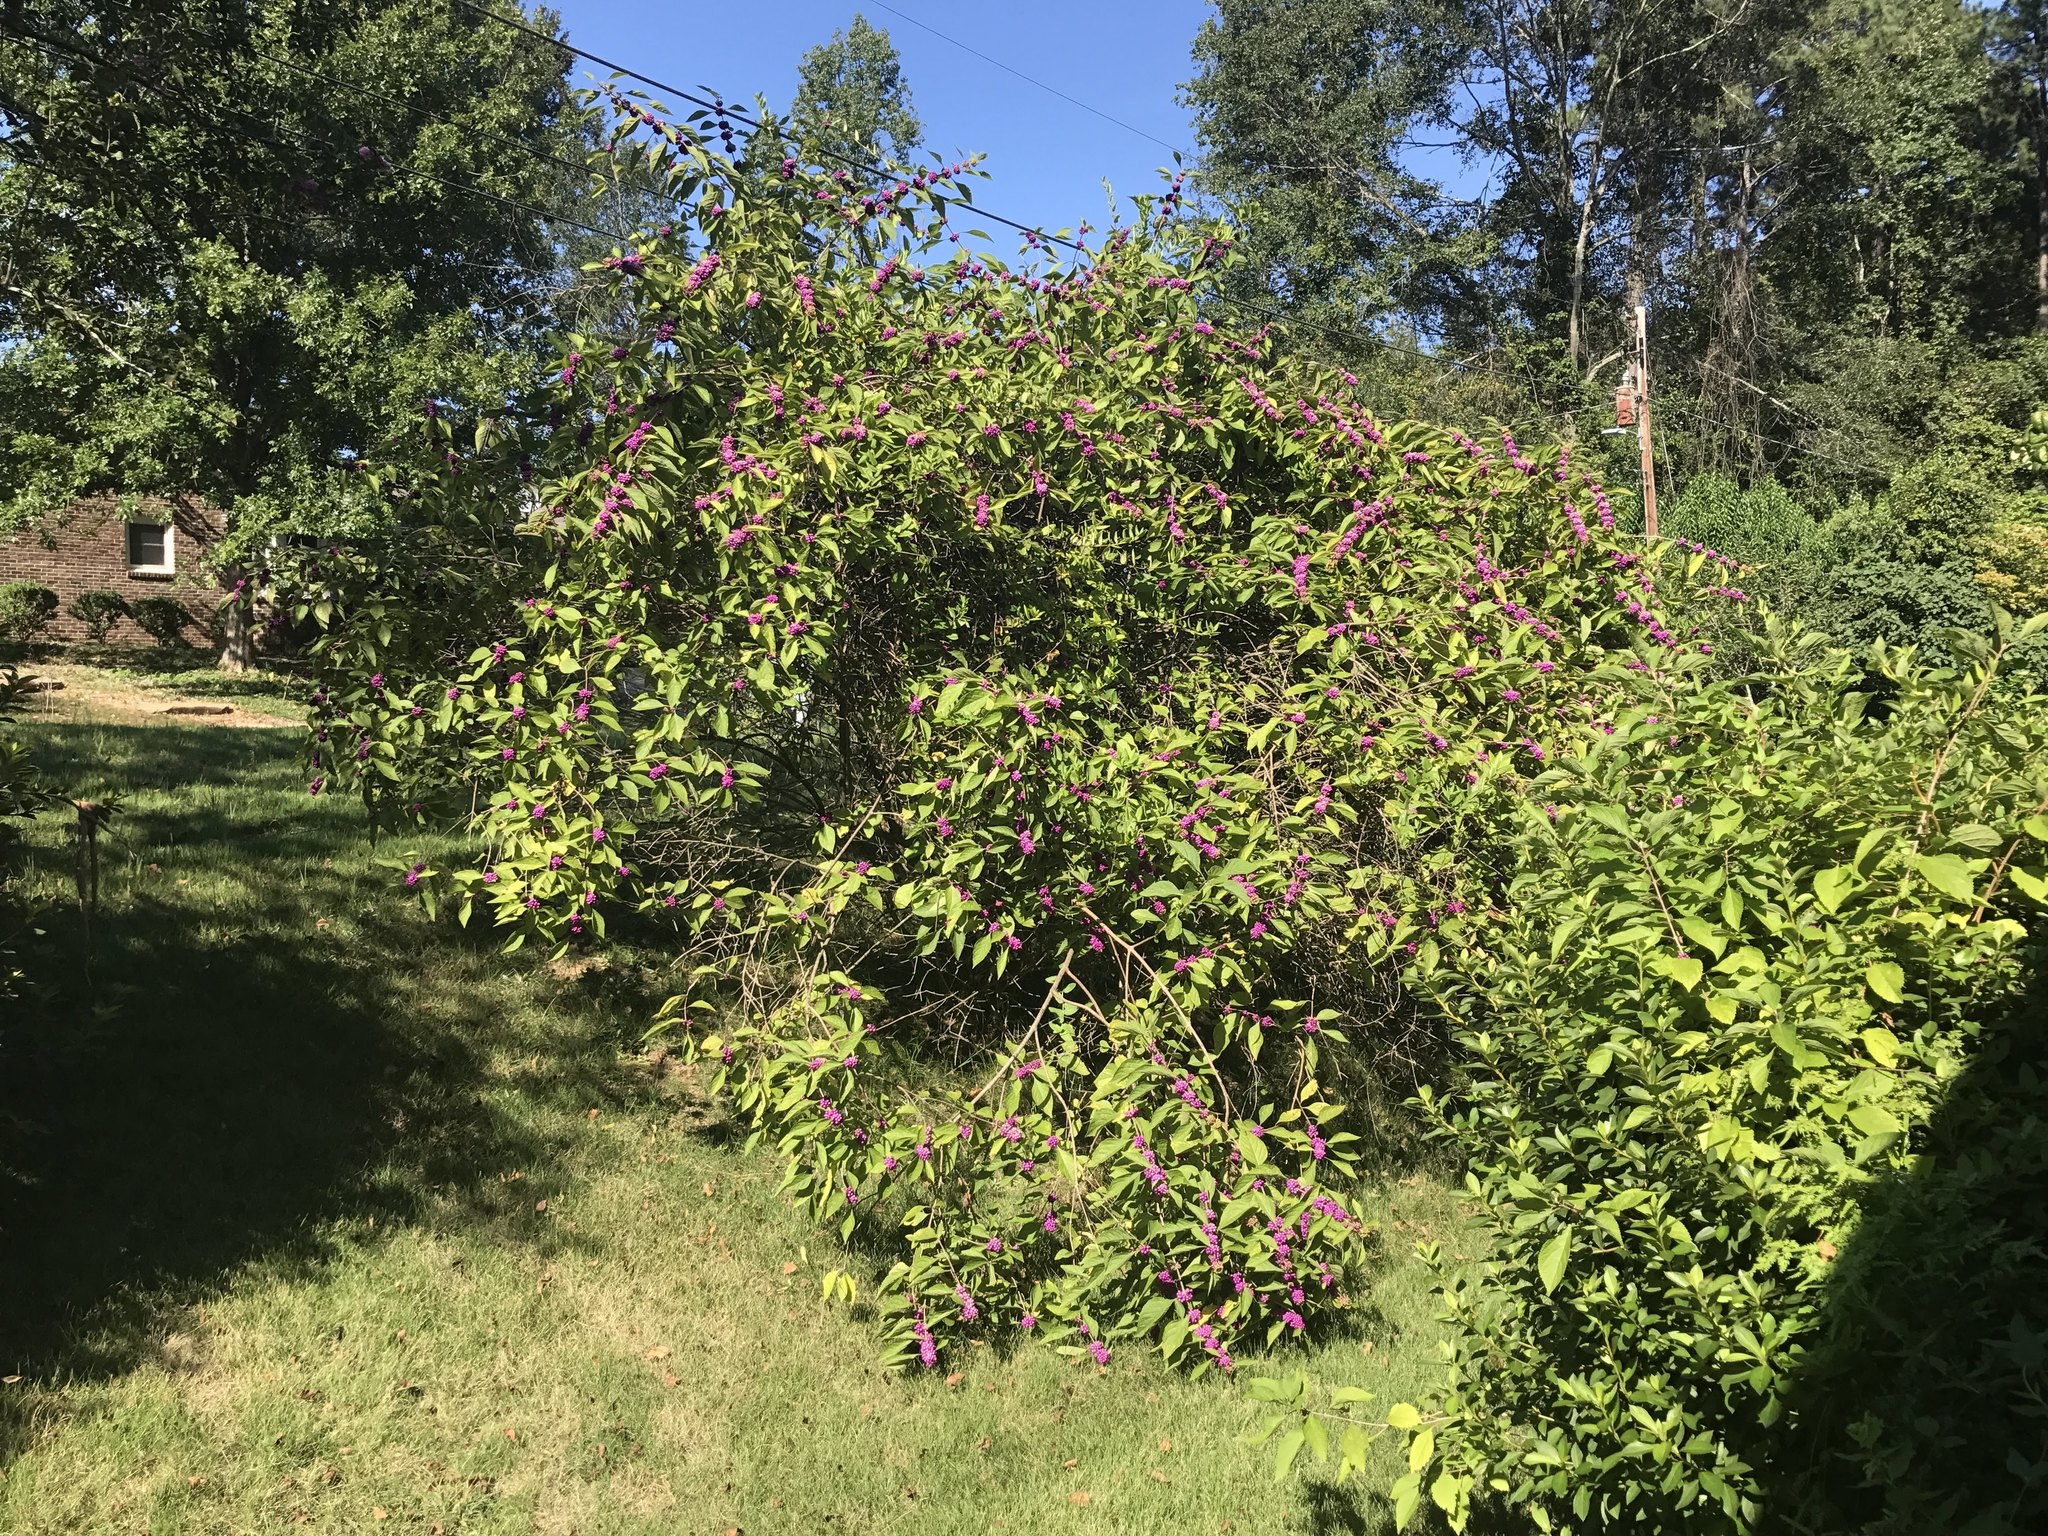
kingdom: Plantae
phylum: Tracheophyta
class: Magnoliopsida
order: Lamiales
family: Lamiaceae
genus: Callicarpa
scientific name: Callicarpa americana
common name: American beautyberry
